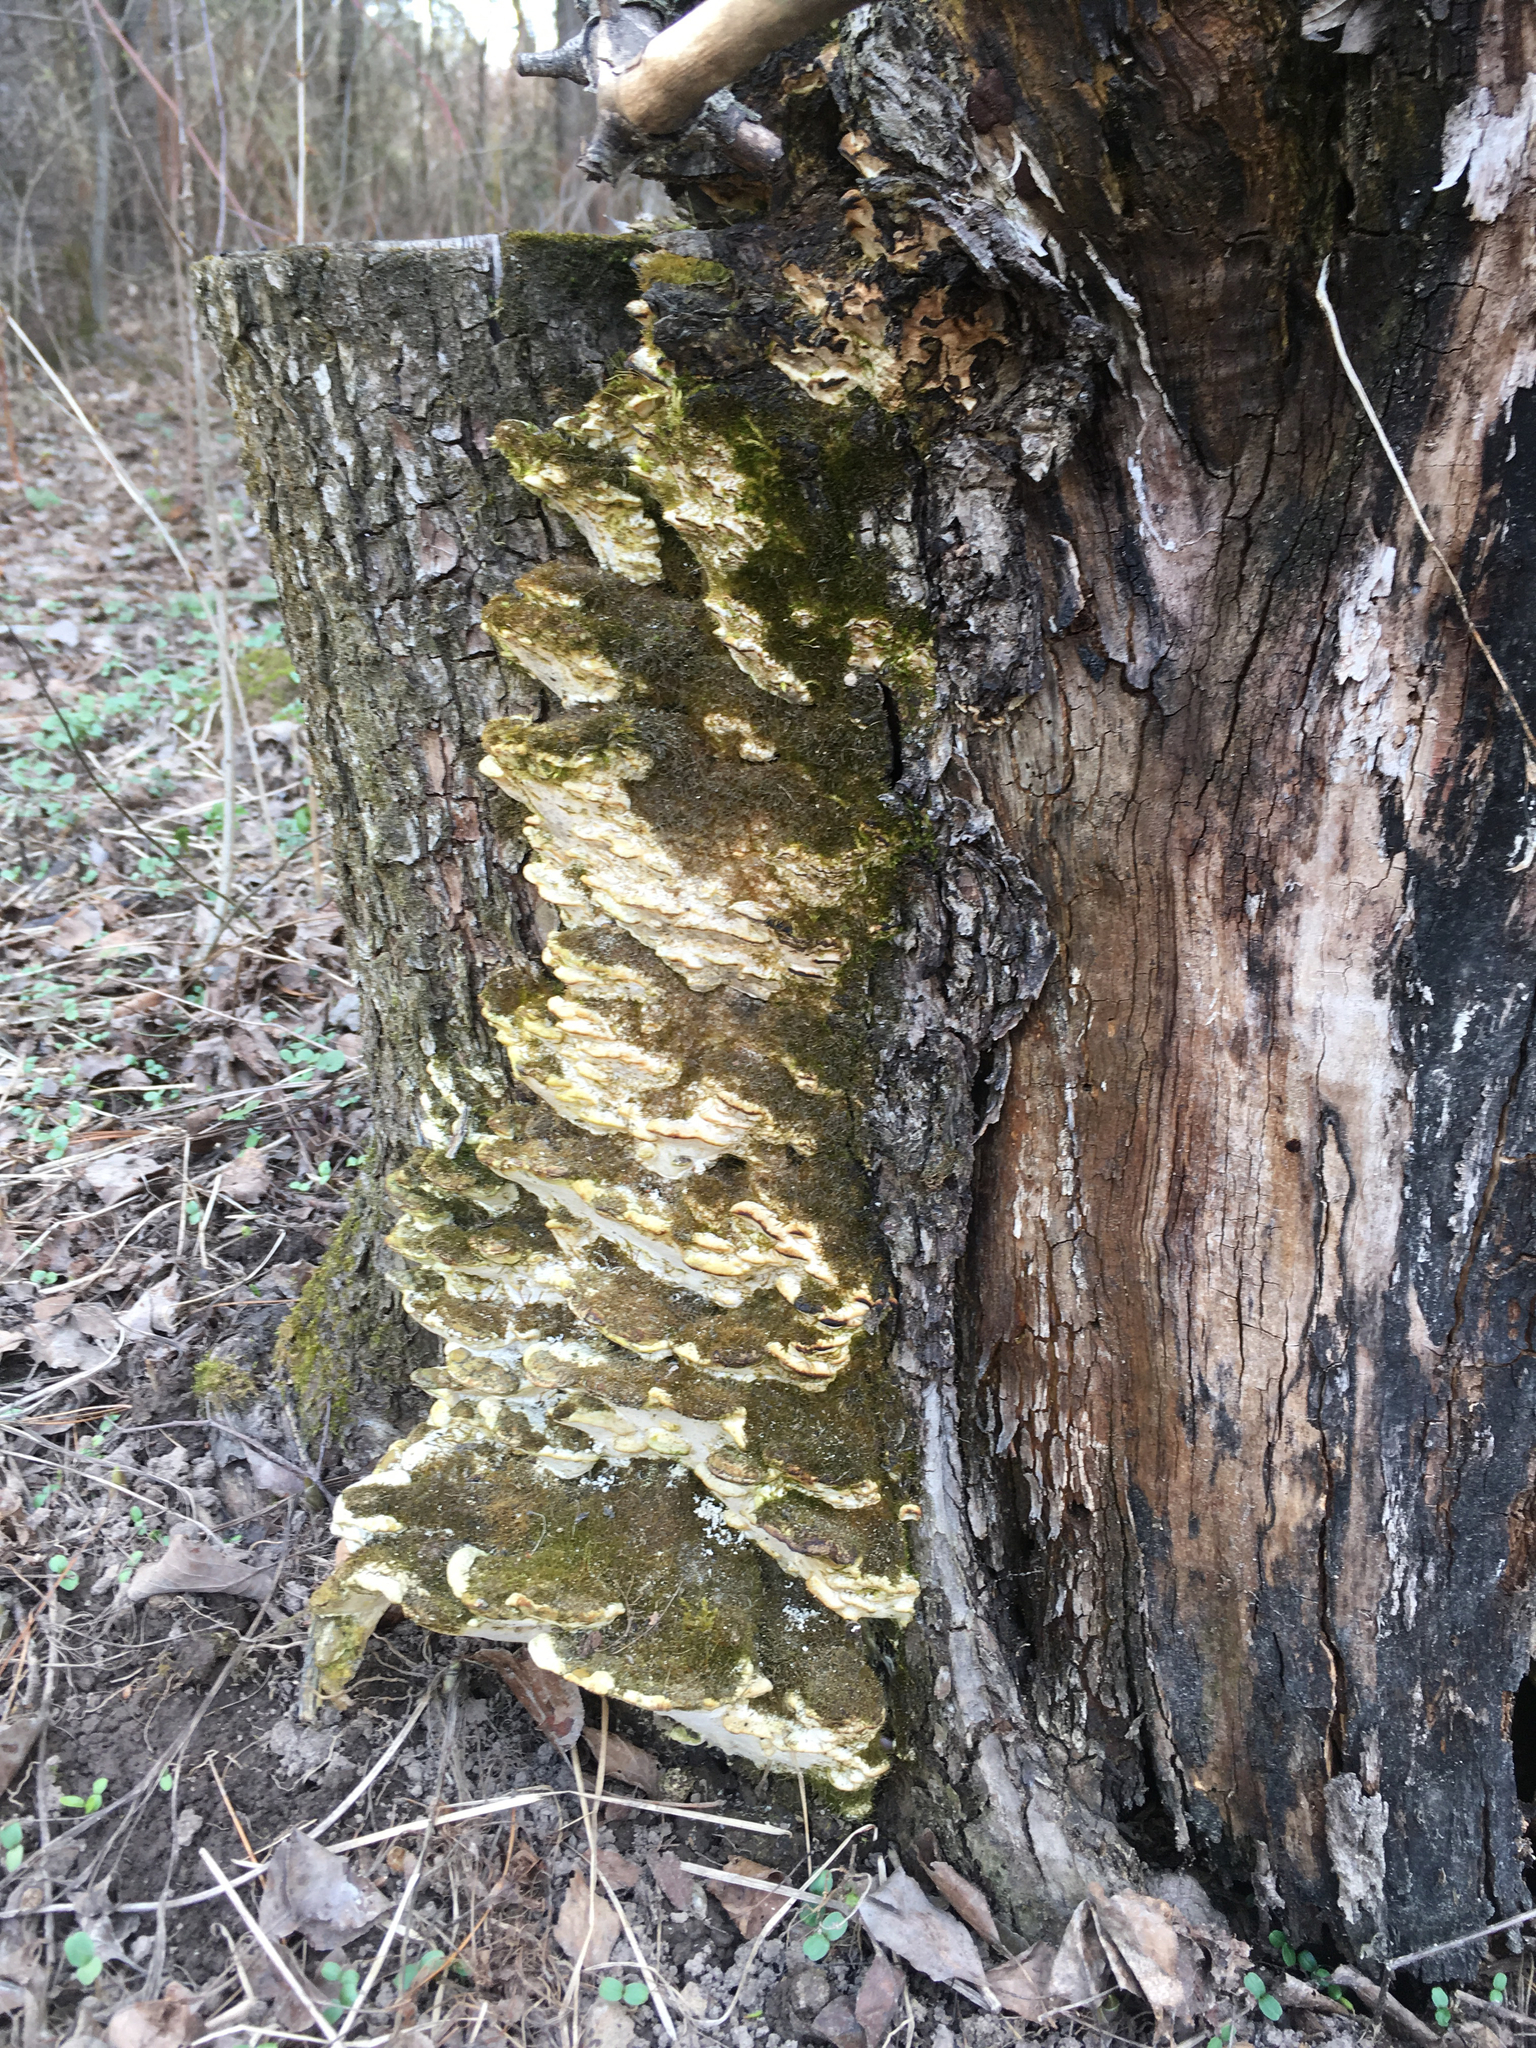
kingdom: Fungi
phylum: Basidiomycota
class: Agaricomycetes
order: Hymenochaetales
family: Oxyporaceae
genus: Oxyporus
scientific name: Oxyporus populinus
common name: Poplar bracket
